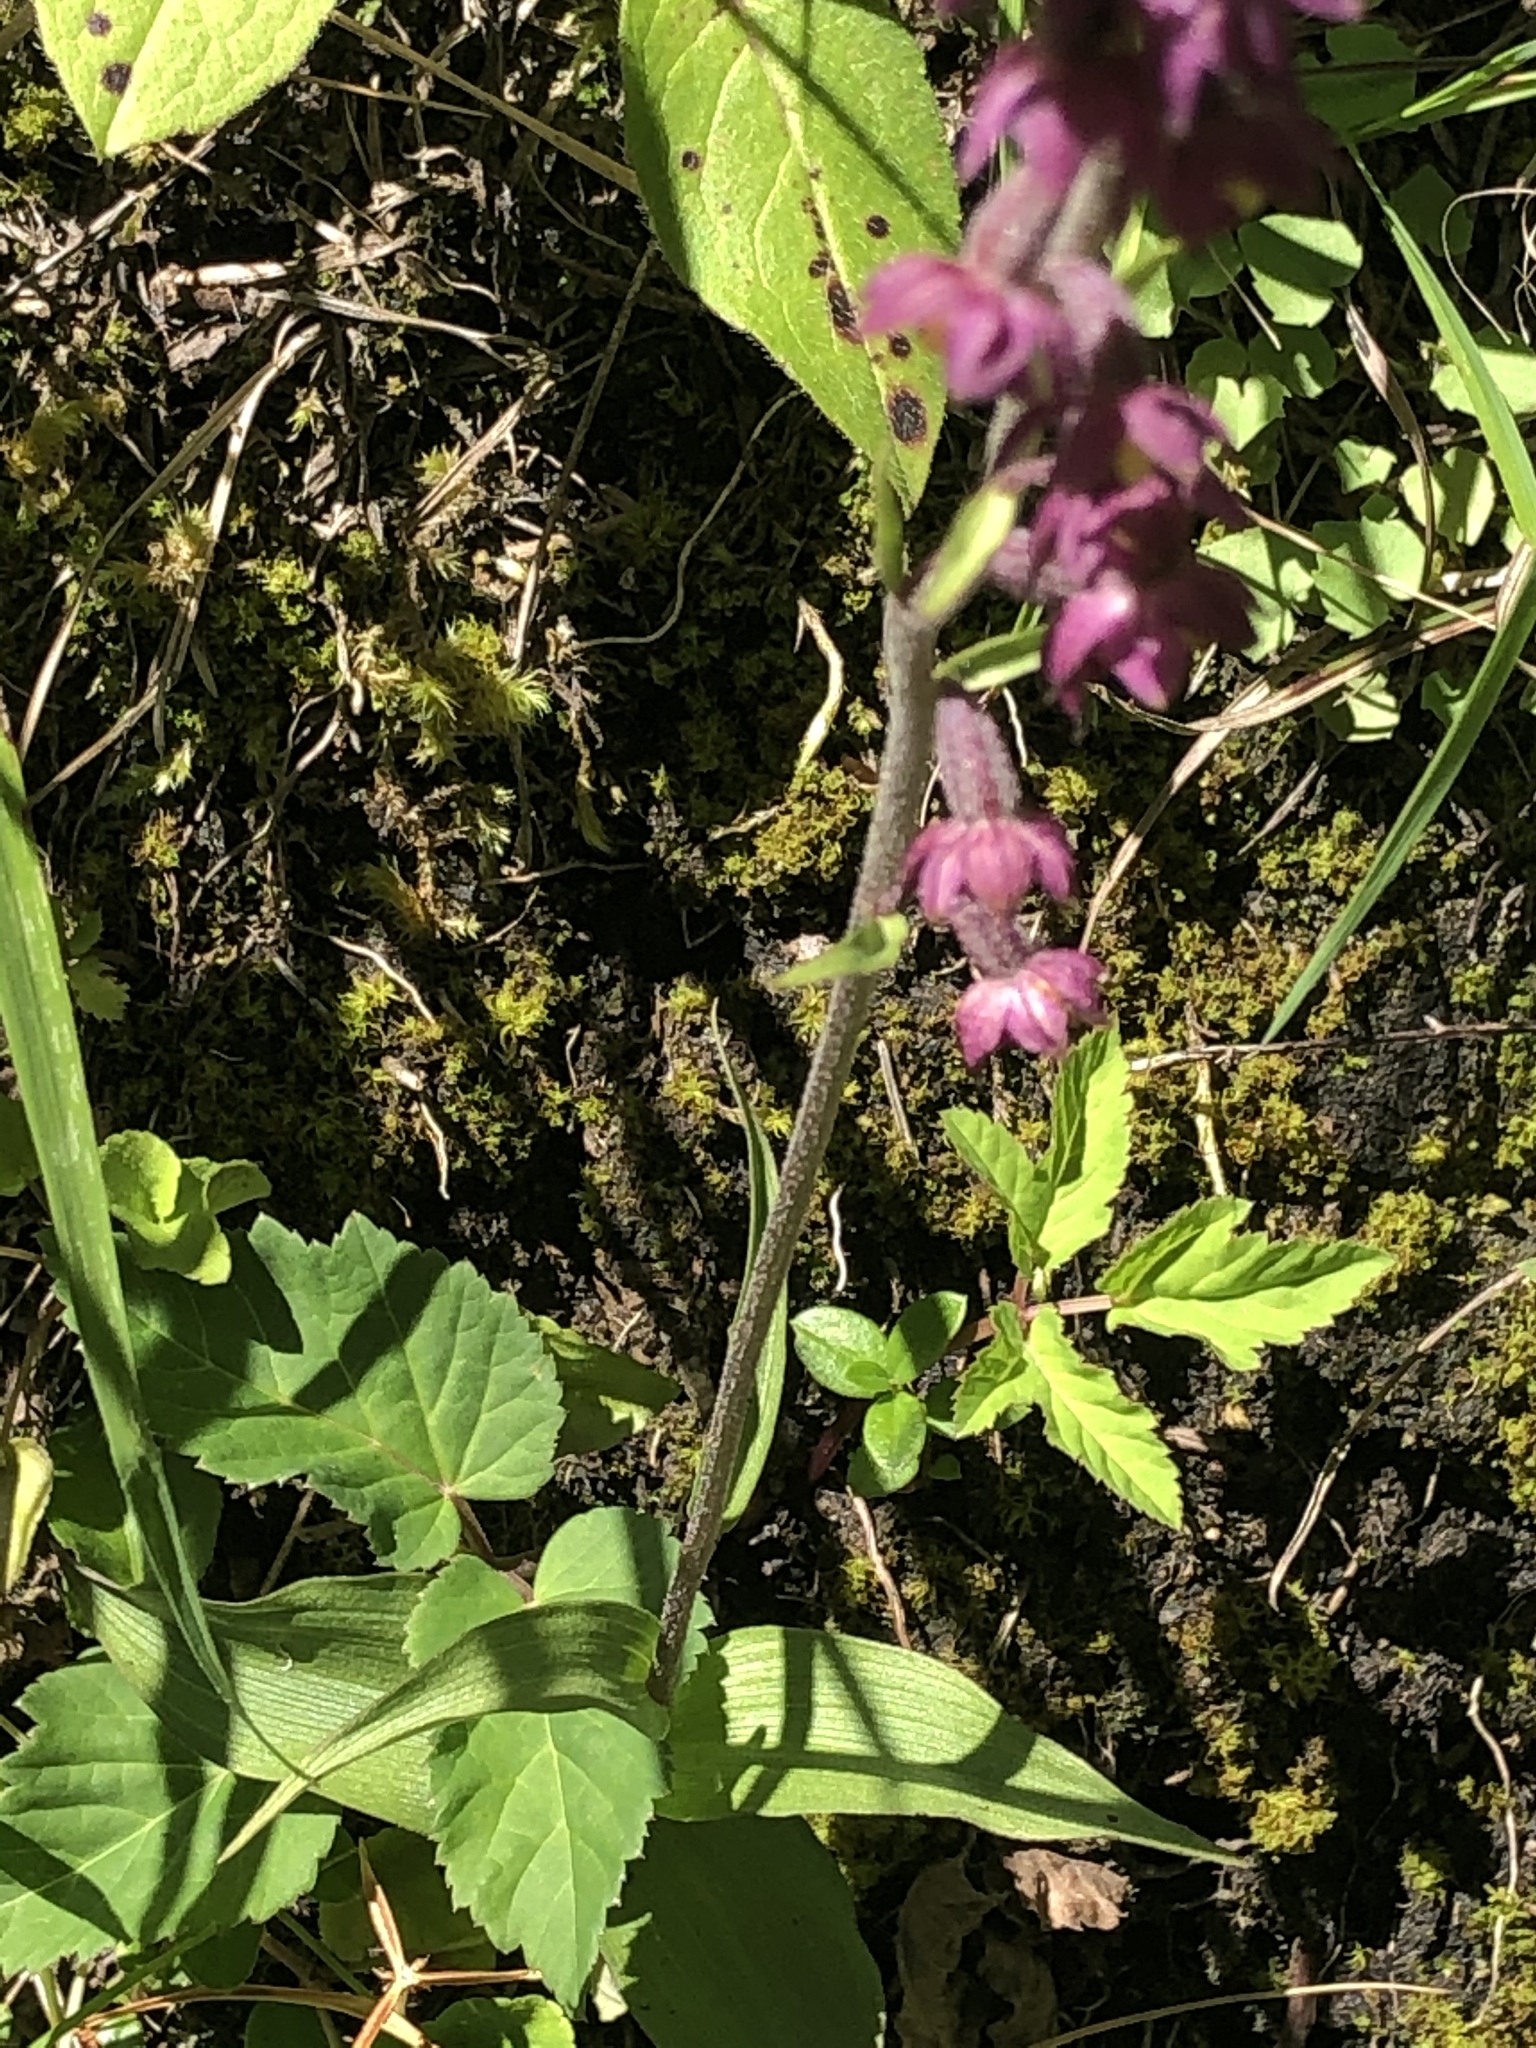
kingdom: Plantae
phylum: Tracheophyta
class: Liliopsida
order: Asparagales
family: Orchidaceae
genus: Epipactis
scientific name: Epipactis atrorubens
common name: Dark-red helleborine
